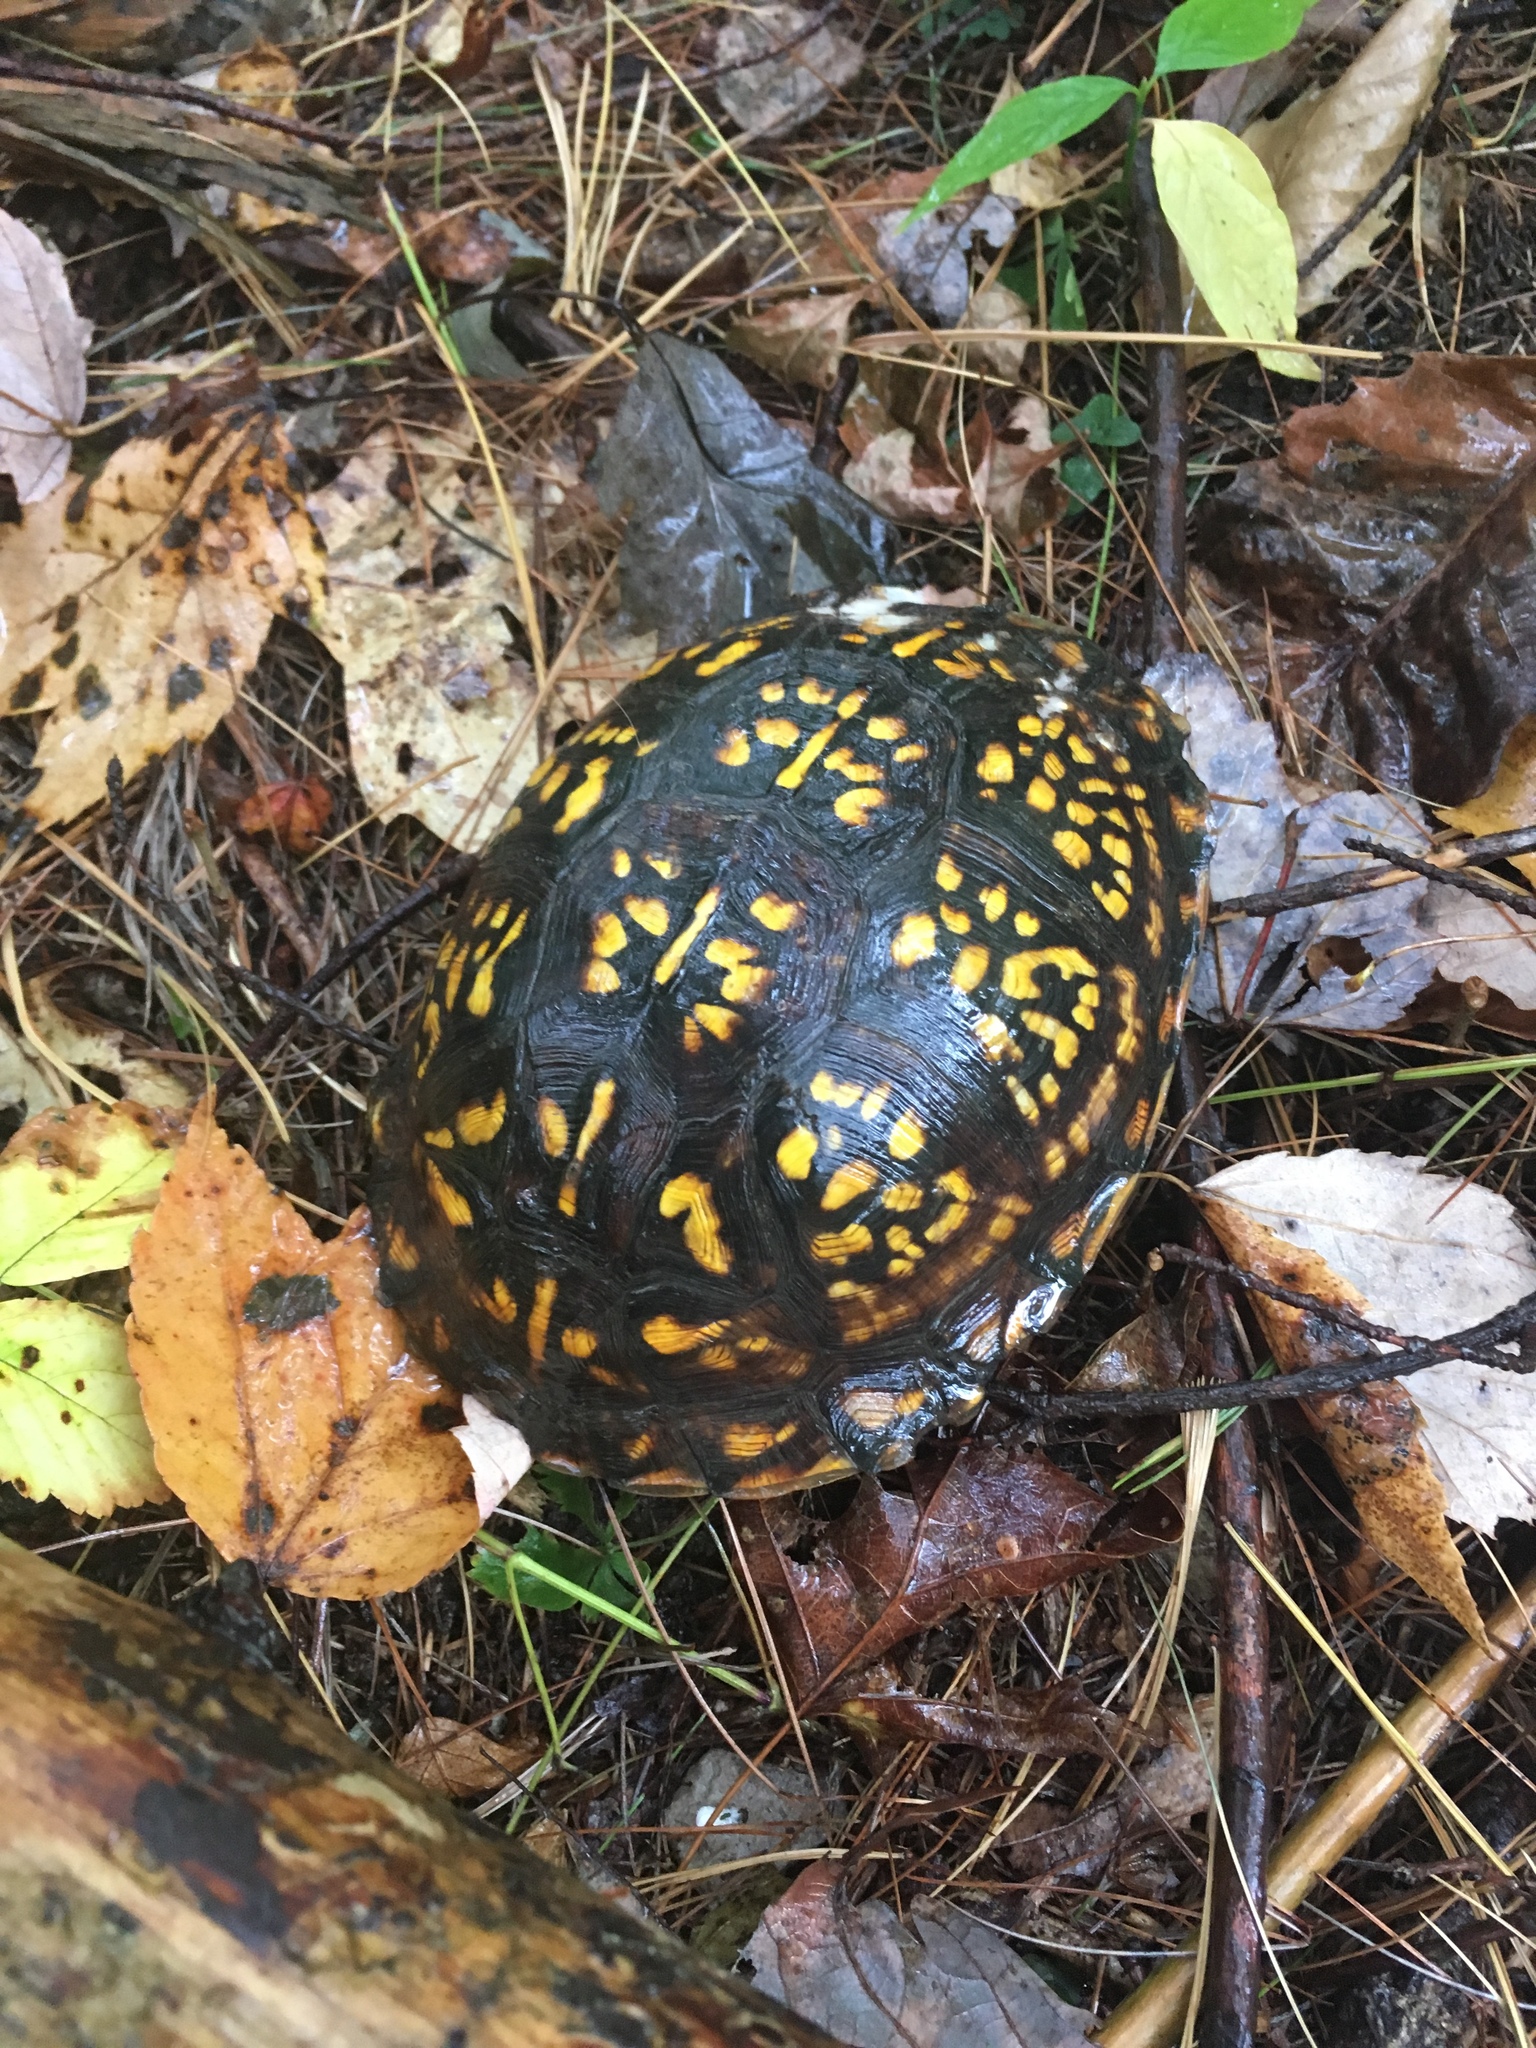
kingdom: Animalia
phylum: Chordata
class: Testudines
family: Emydidae
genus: Terrapene
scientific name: Terrapene carolina
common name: Common box turtle
